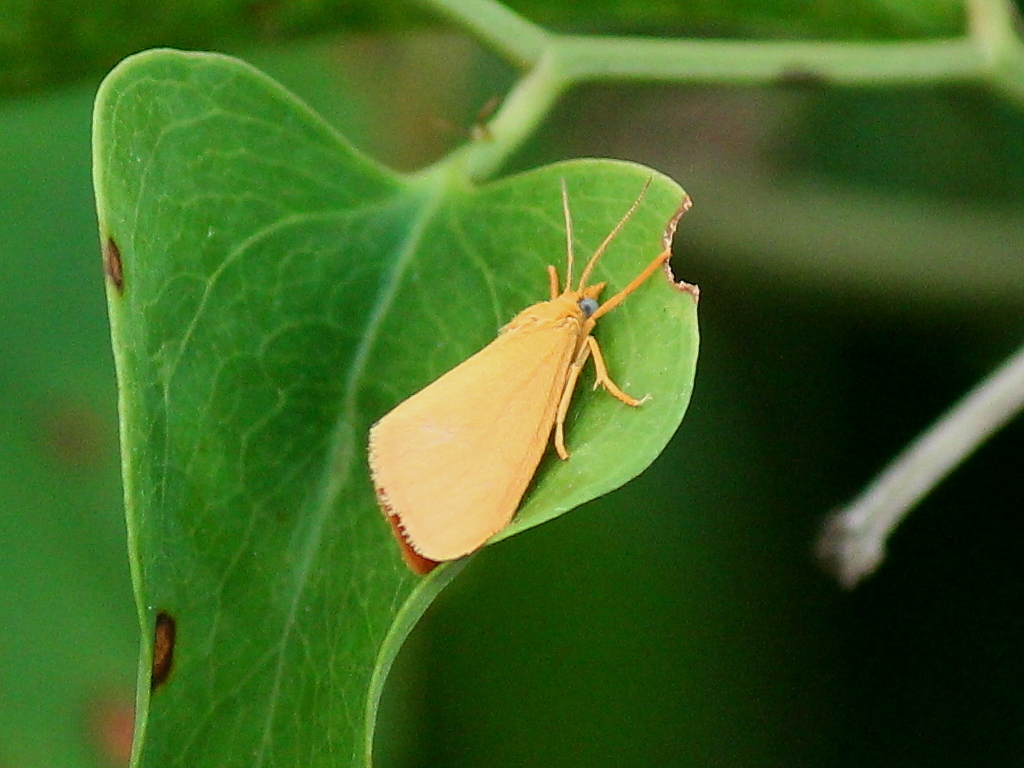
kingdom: Animalia
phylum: Arthropoda
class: Insecta
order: Lepidoptera
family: Erebidae
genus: Virbia
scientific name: Virbia aurantiaca
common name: Orange virbia moth
